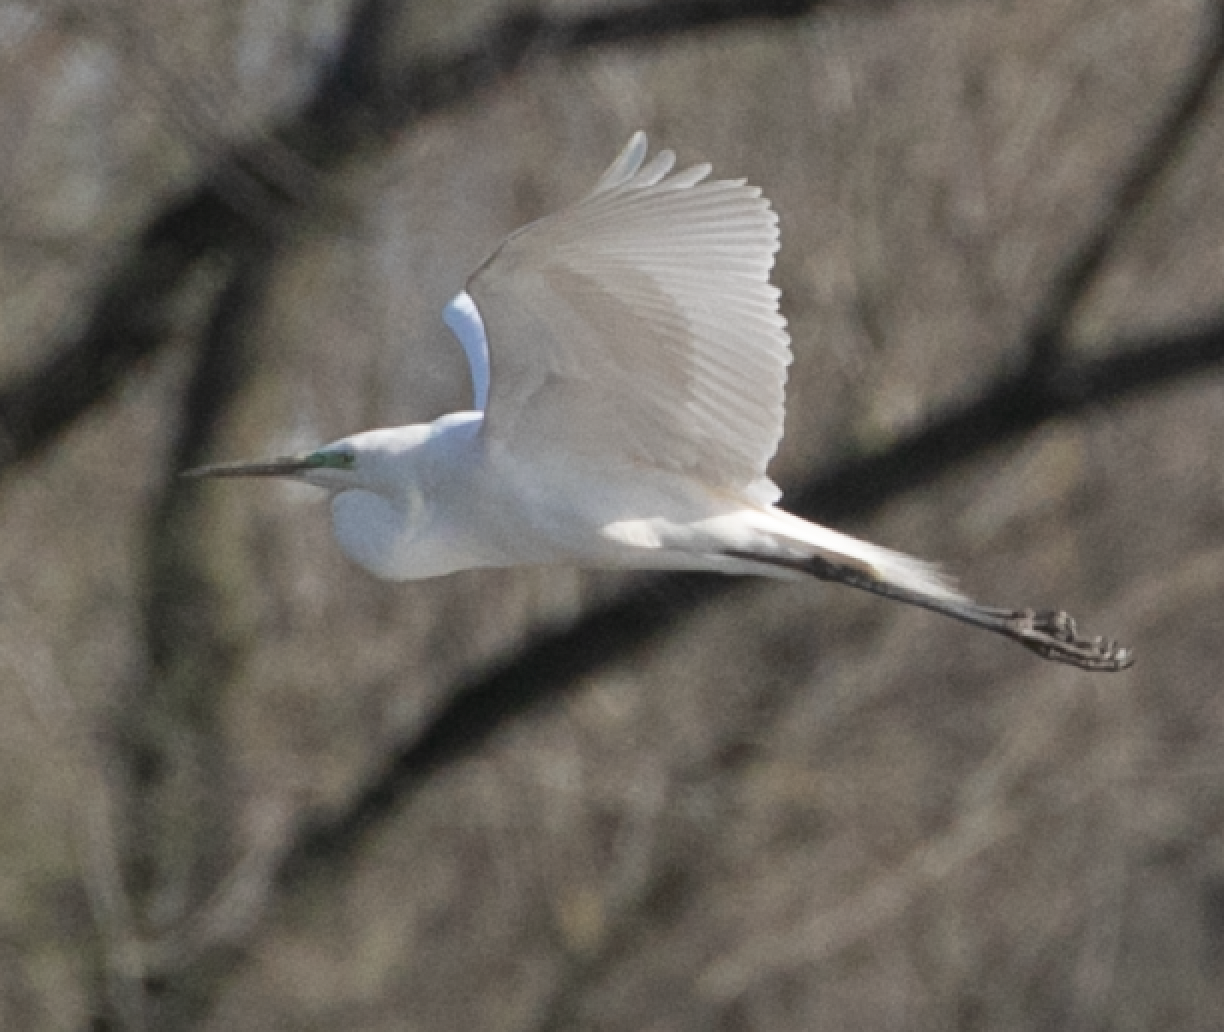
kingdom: Animalia
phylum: Chordata
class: Aves
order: Pelecaniformes
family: Ardeidae
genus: Ardea
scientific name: Ardea alba
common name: Great egret
